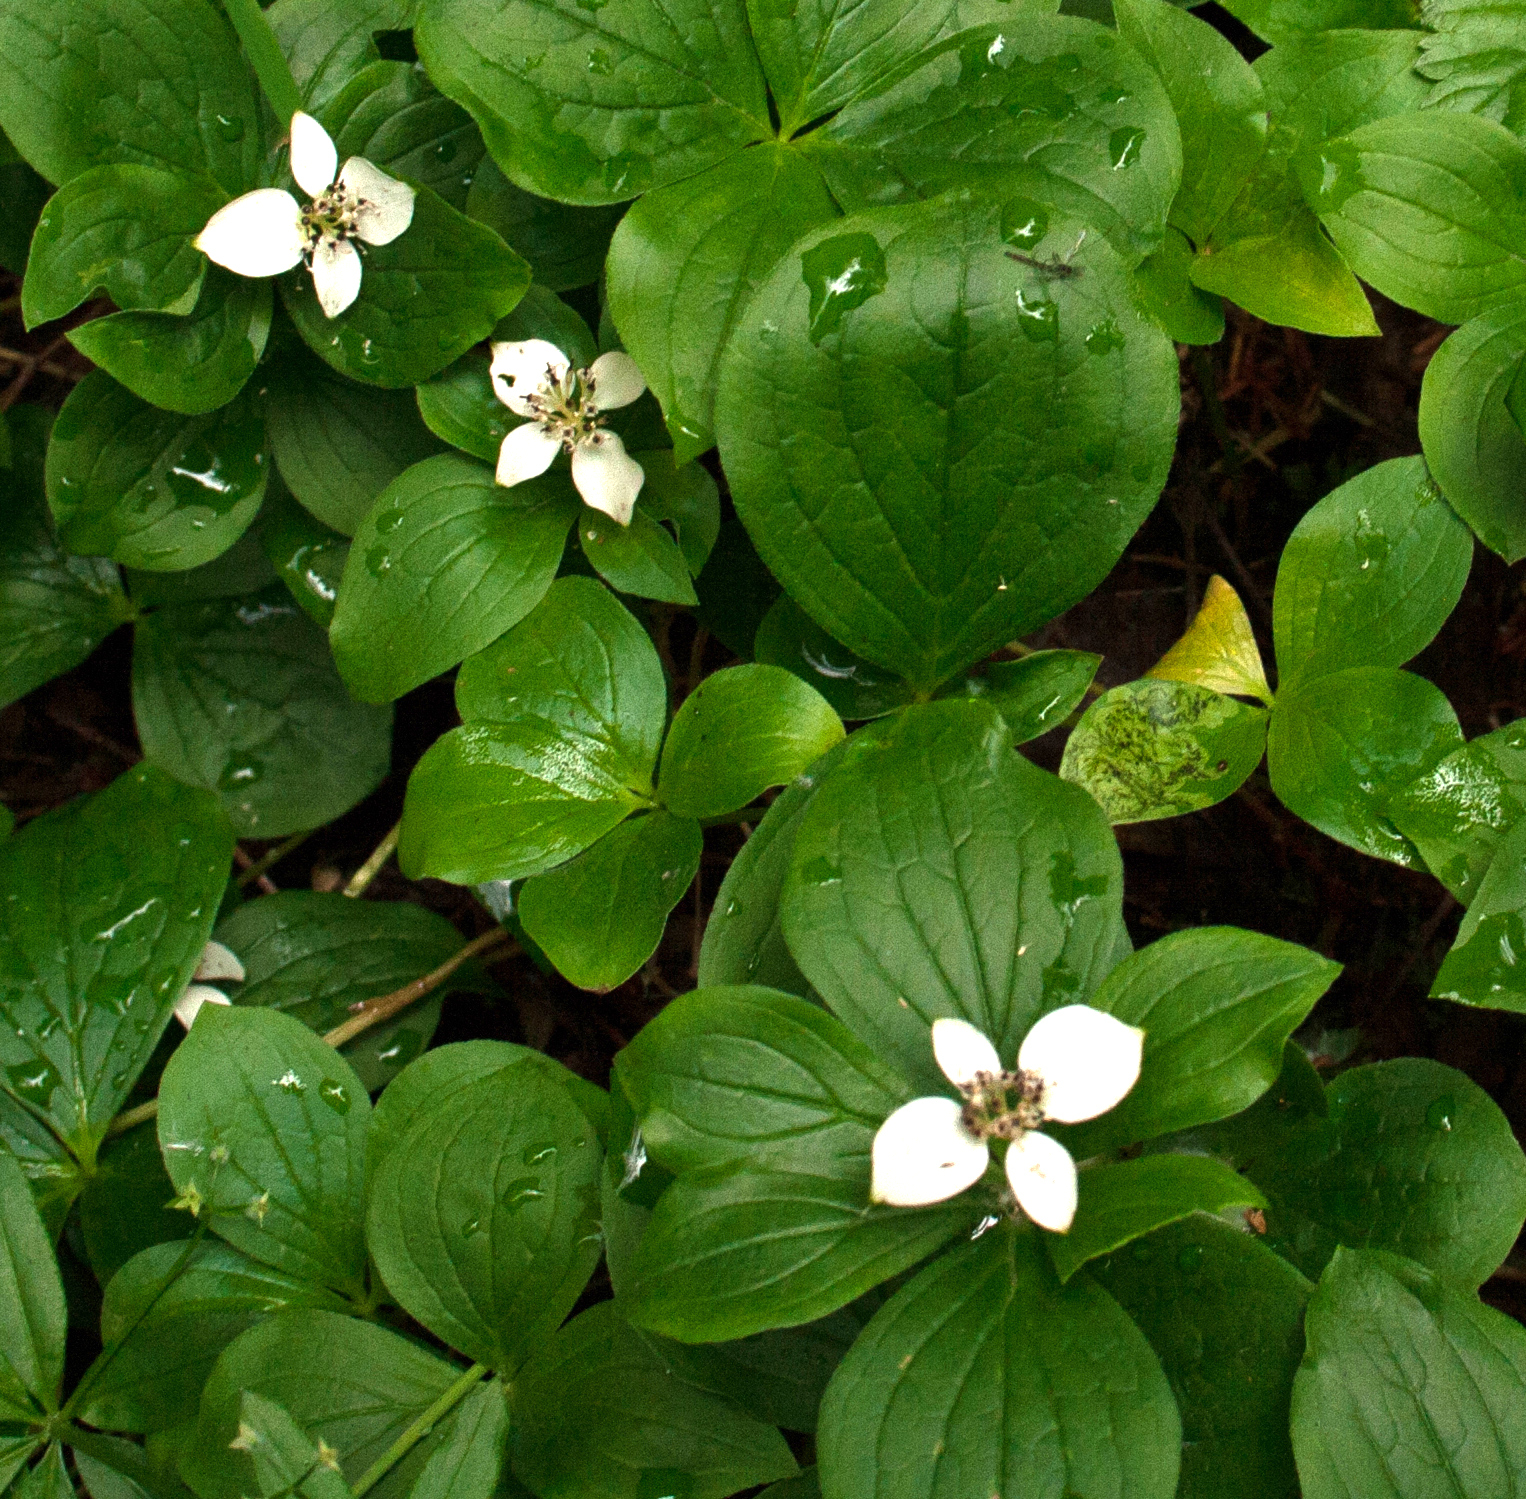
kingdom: Plantae
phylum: Tracheophyta
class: Magnoliopsida
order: Cornales
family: Cornaceae
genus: Cornus
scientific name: Cornus canadensis
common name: Creeping dogwood
